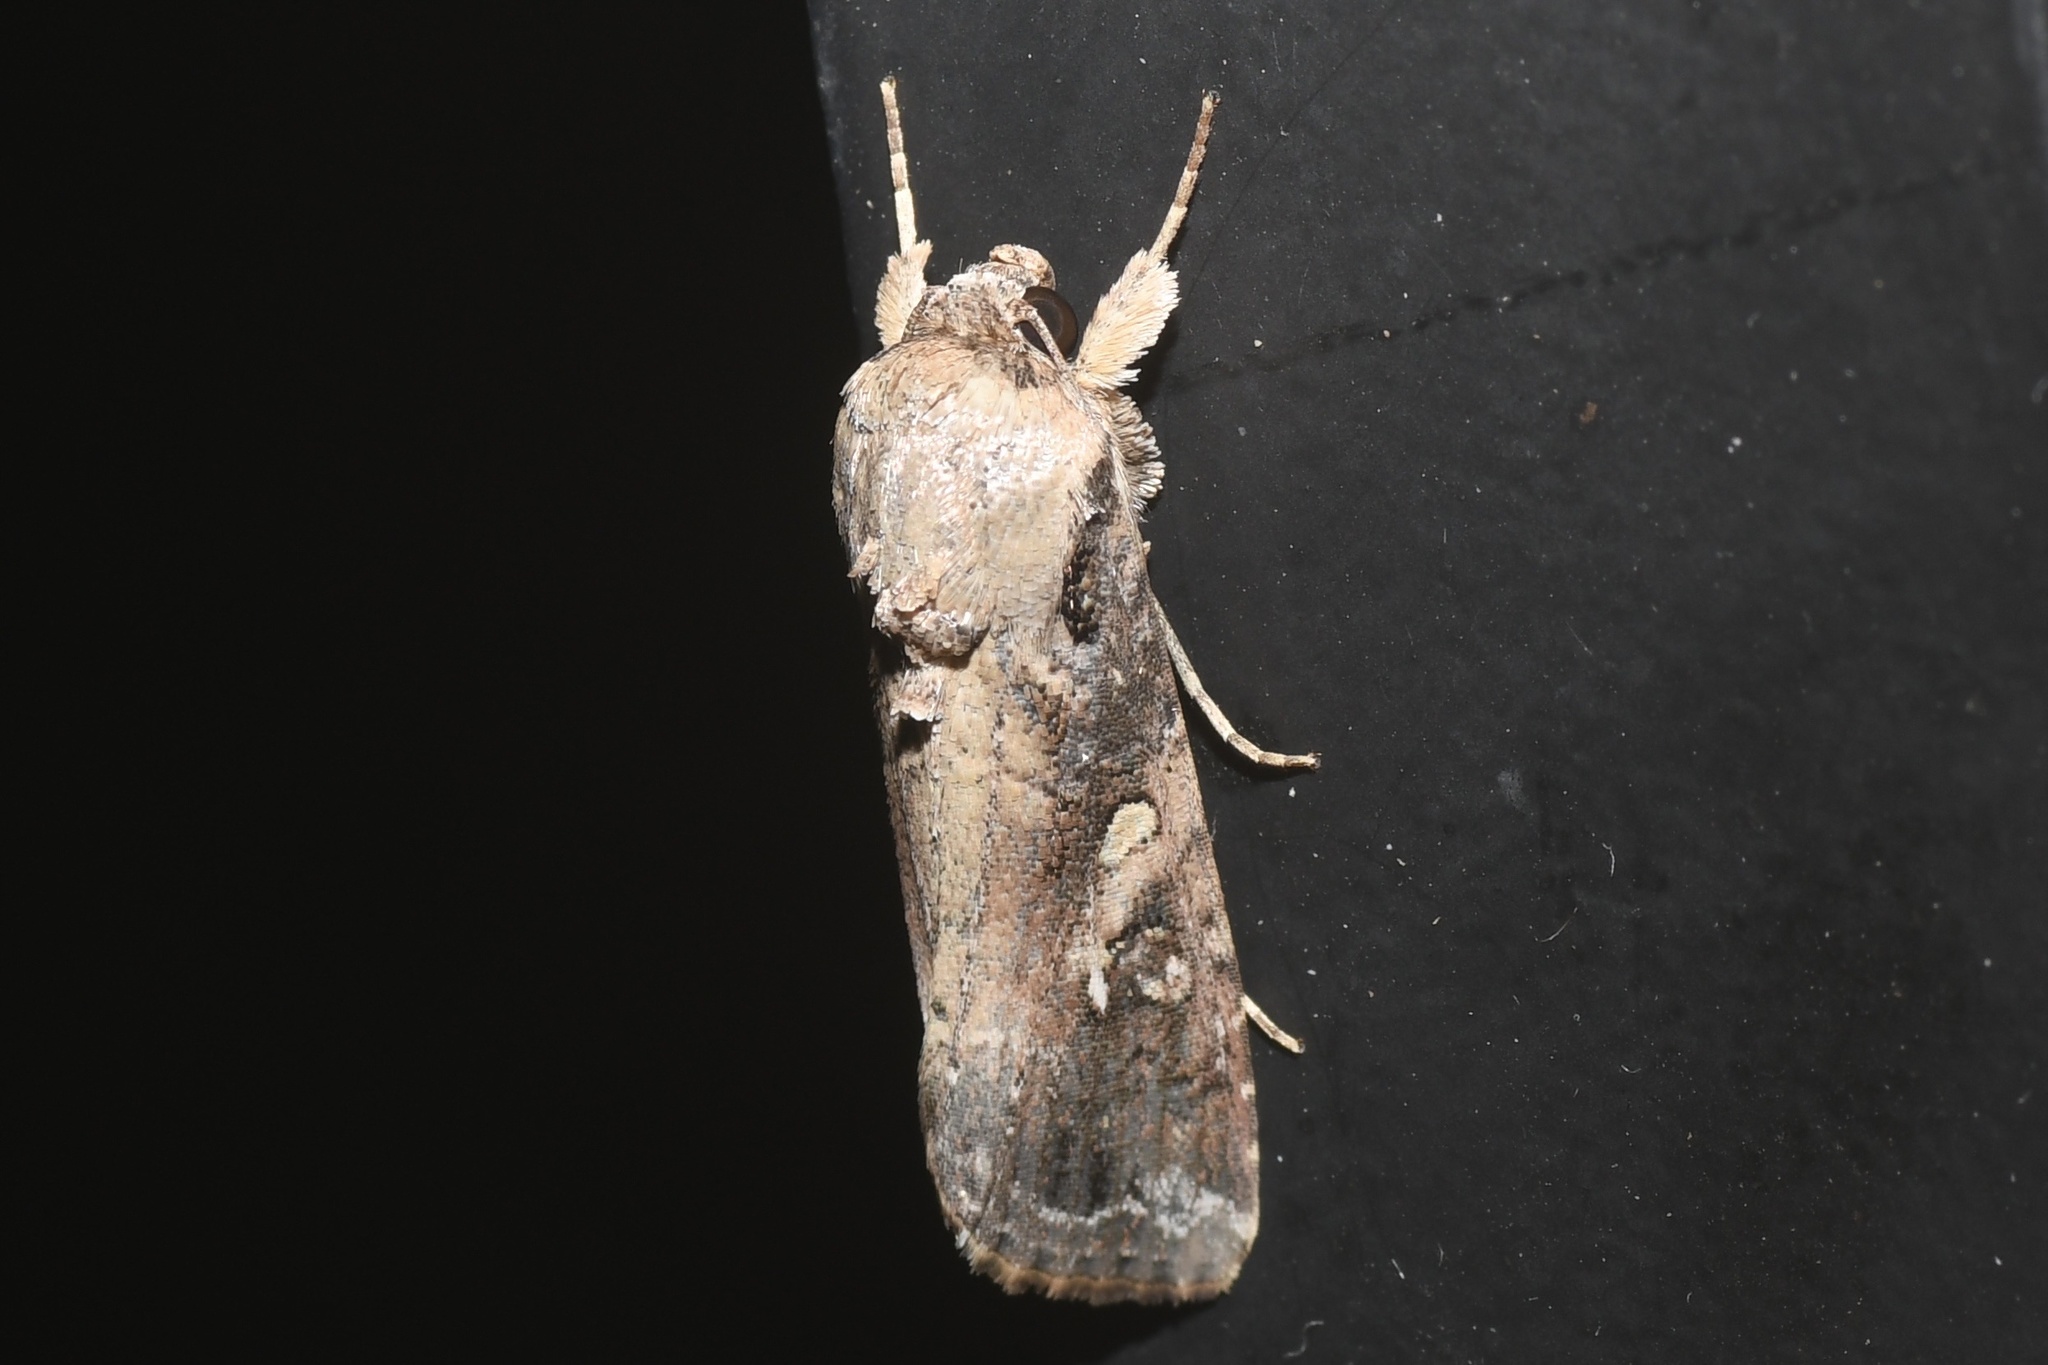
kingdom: Animalia
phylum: Arthropoda
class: Insecta
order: Lepidoptera
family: Noctuidae
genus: Spodoptera
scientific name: Spodoptera frugiperda
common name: Fall armyworm
